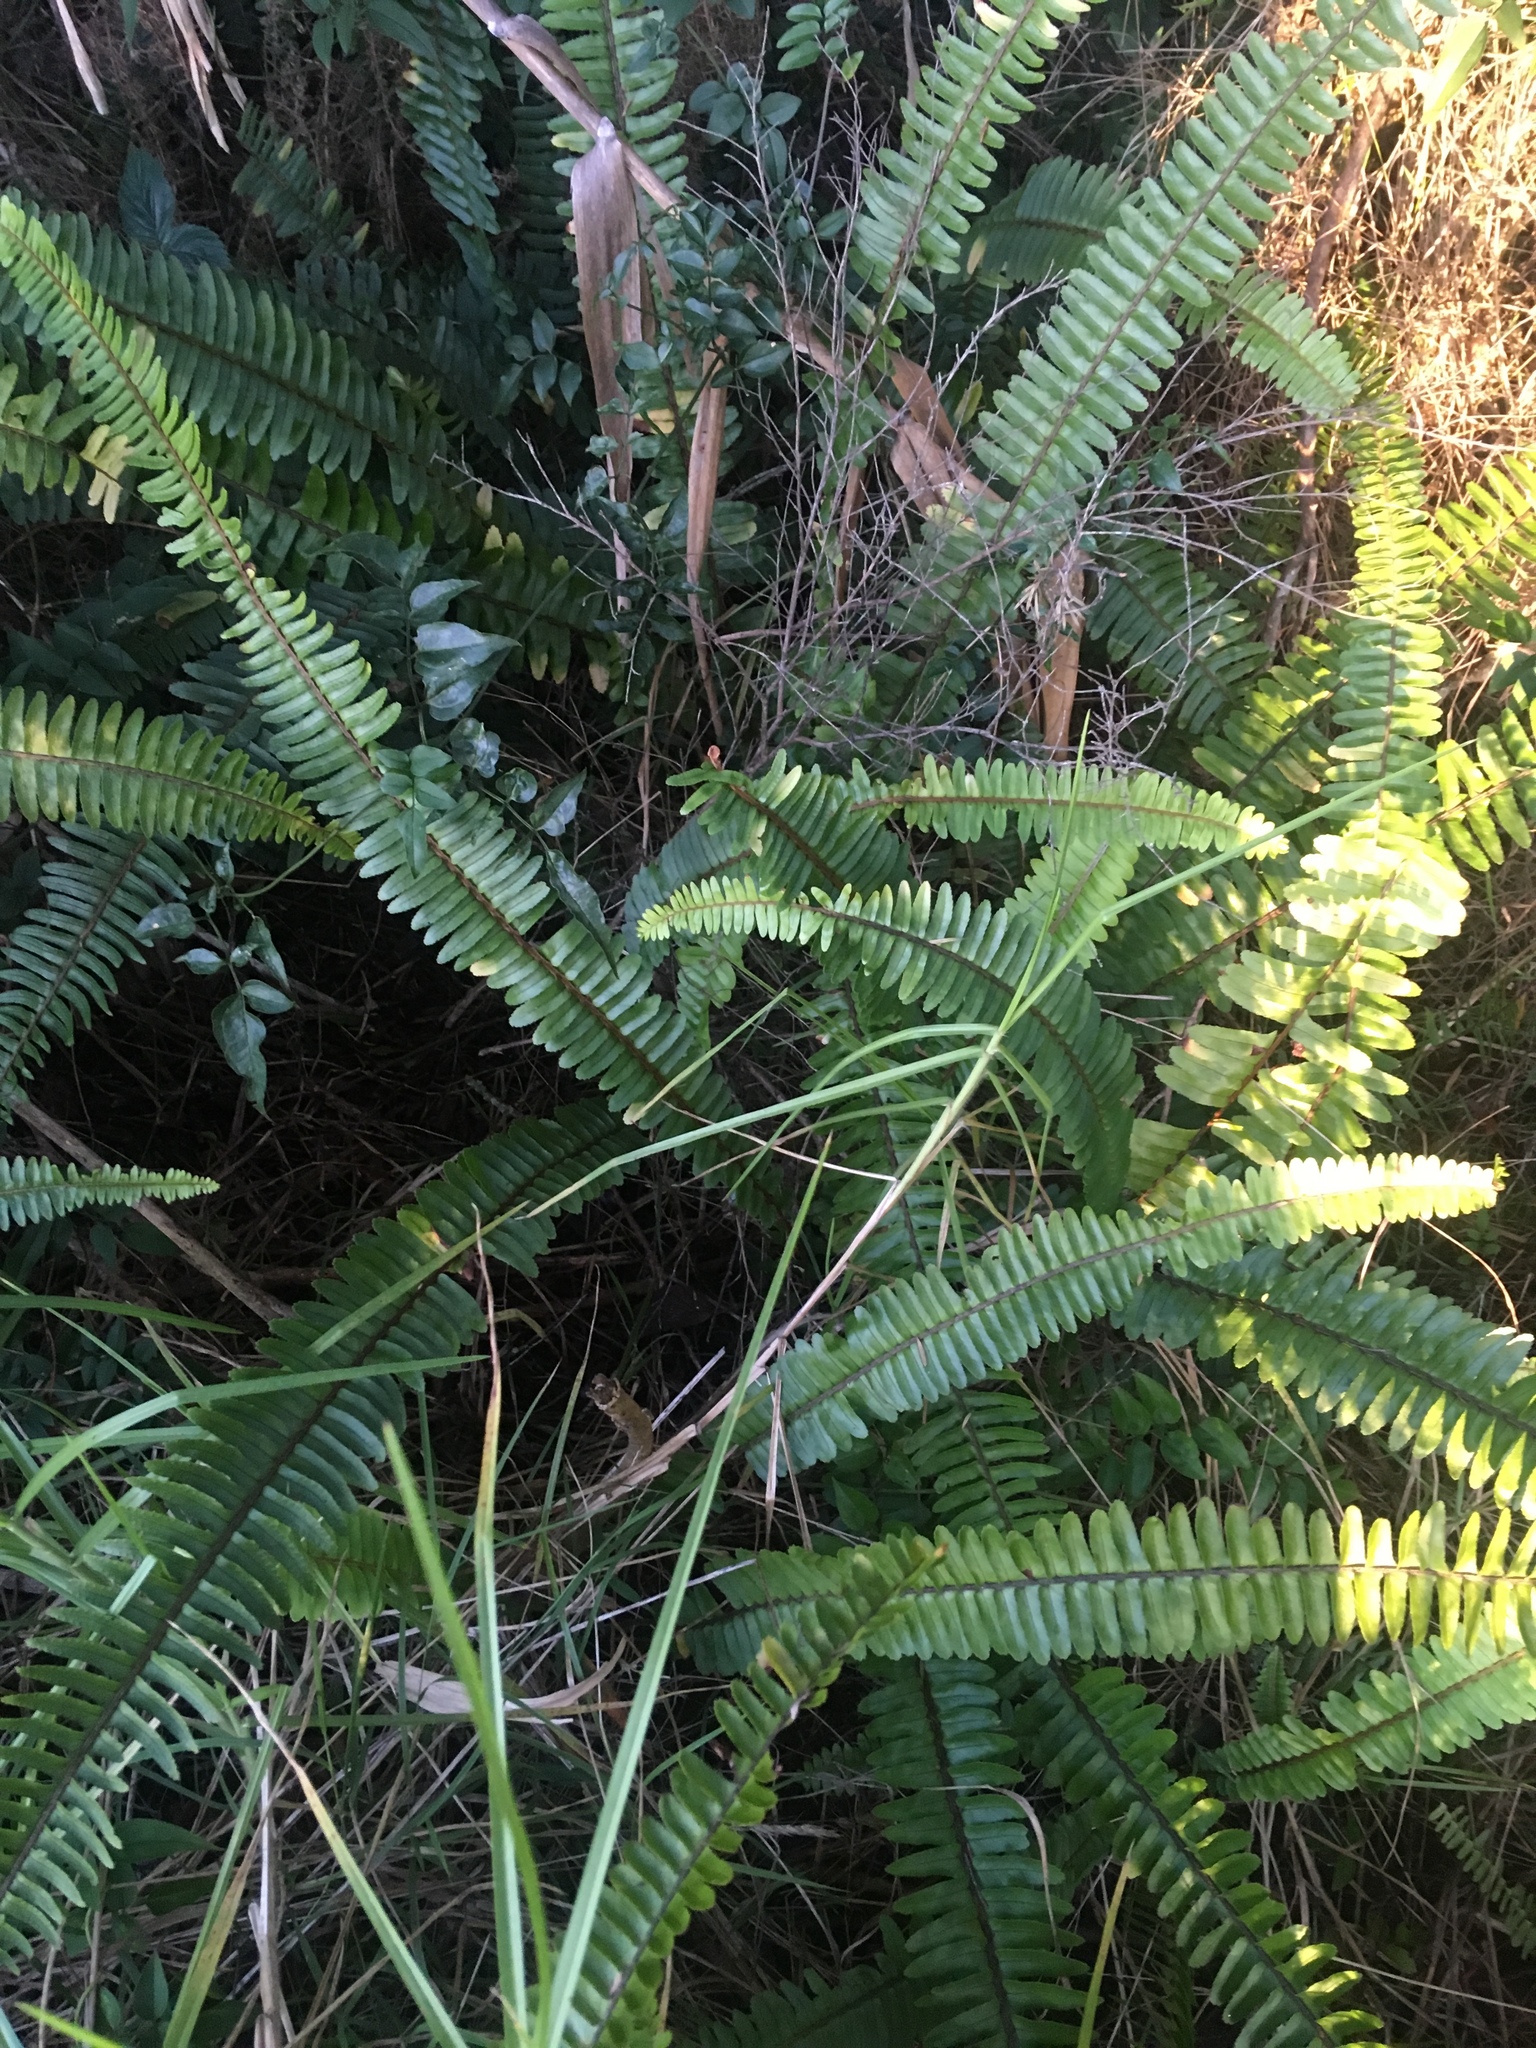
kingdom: Plantae
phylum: Tracheophyta
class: Polypodiopsida
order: Polypodiales
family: Nephrolepidaceae
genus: Nephrolepis
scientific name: Nephrolepis cordifolia
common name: Narrow swordfern
